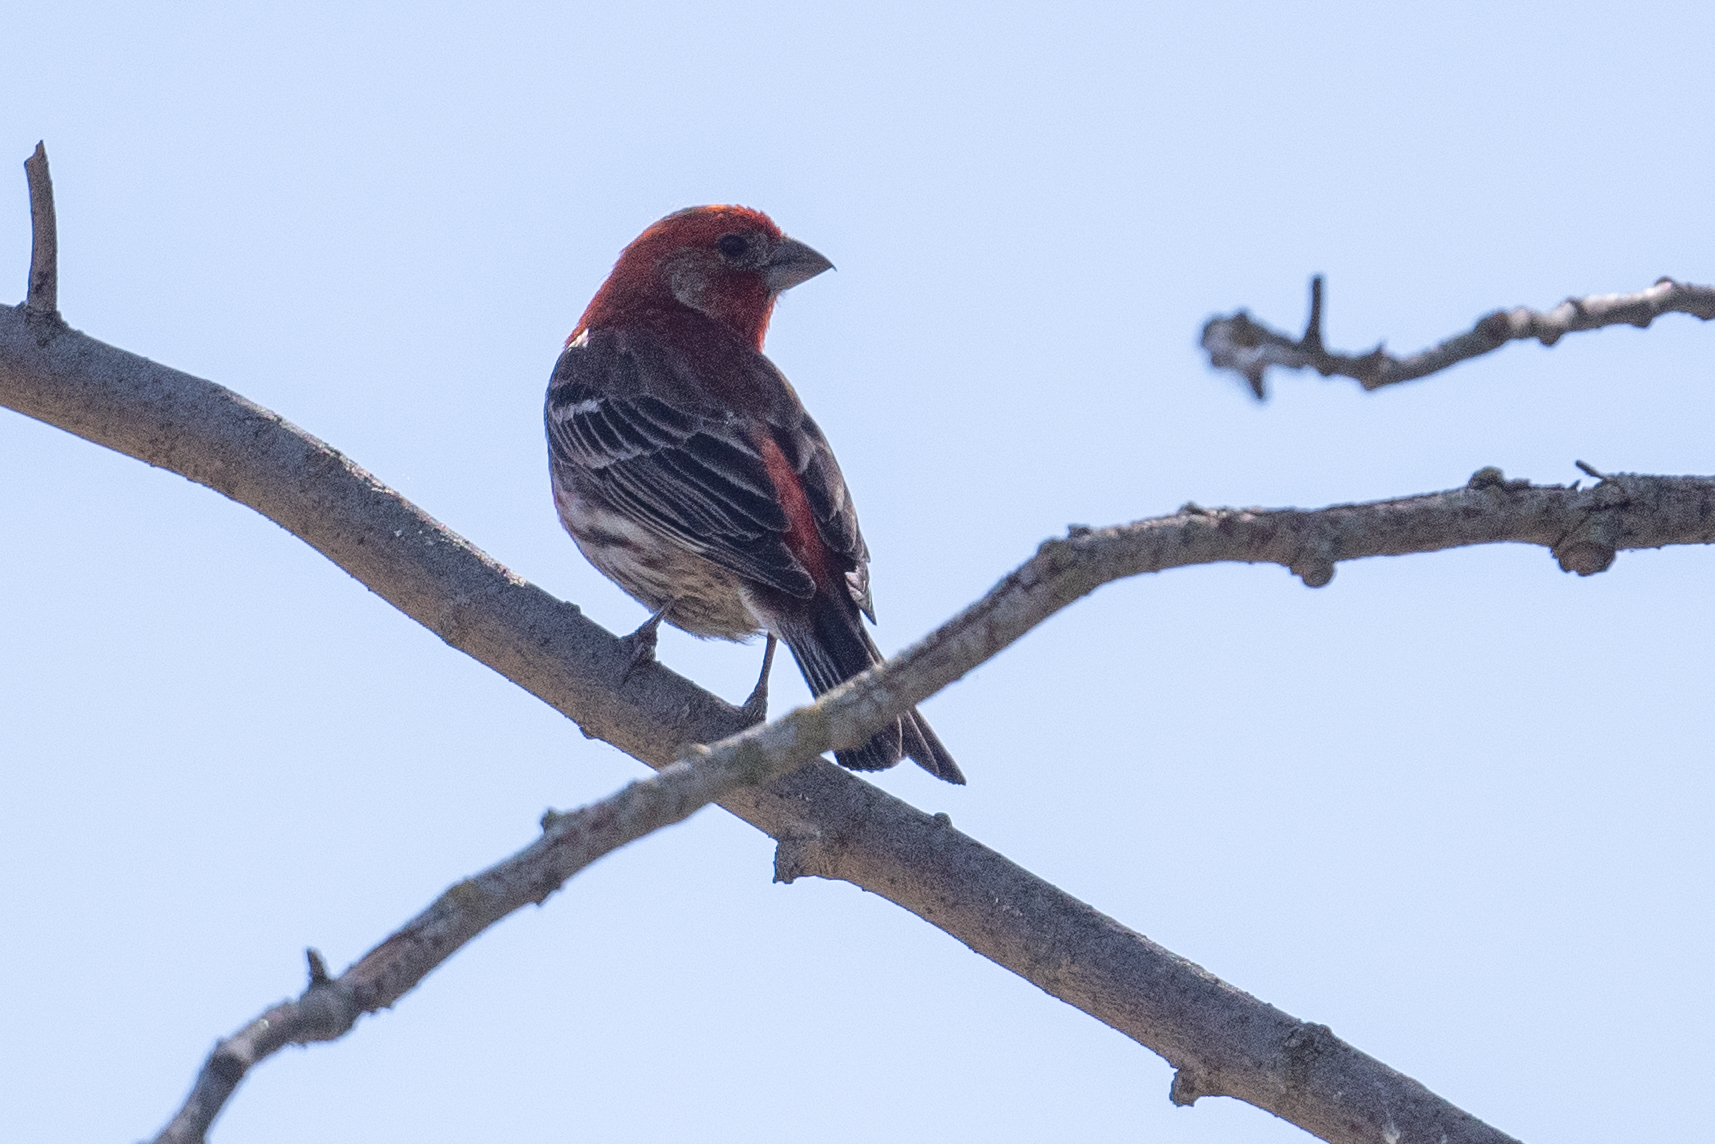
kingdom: Animalia
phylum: Chordata
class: Aves
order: Passeriformes
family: Fringillidae
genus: Haemorhous
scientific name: Haemorhous mexicanus
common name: House finch
